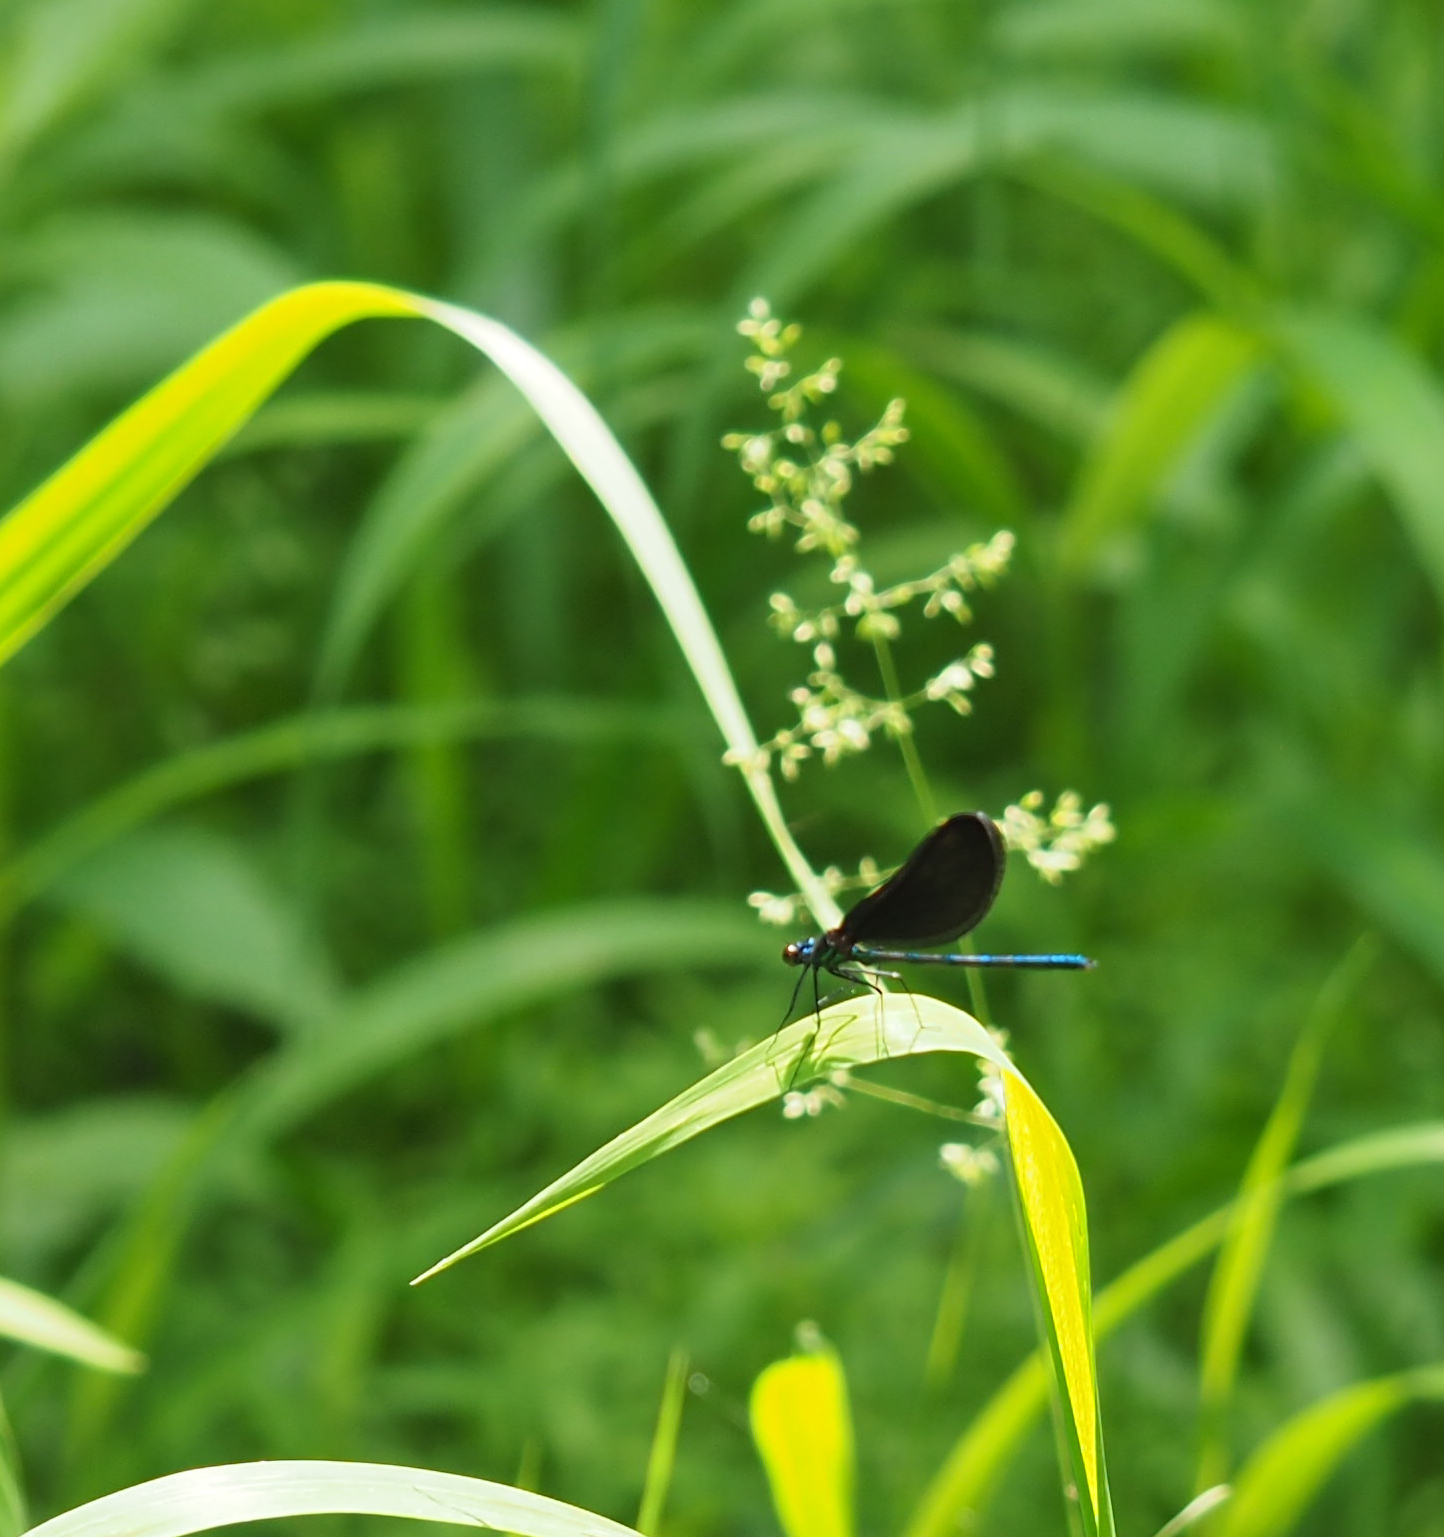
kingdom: Animalia
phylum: Arthropoda
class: Insecta
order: Odonata
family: Calopterygidae
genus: Calopteryx
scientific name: Calopteryx maculata
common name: Ebony jewelwing
